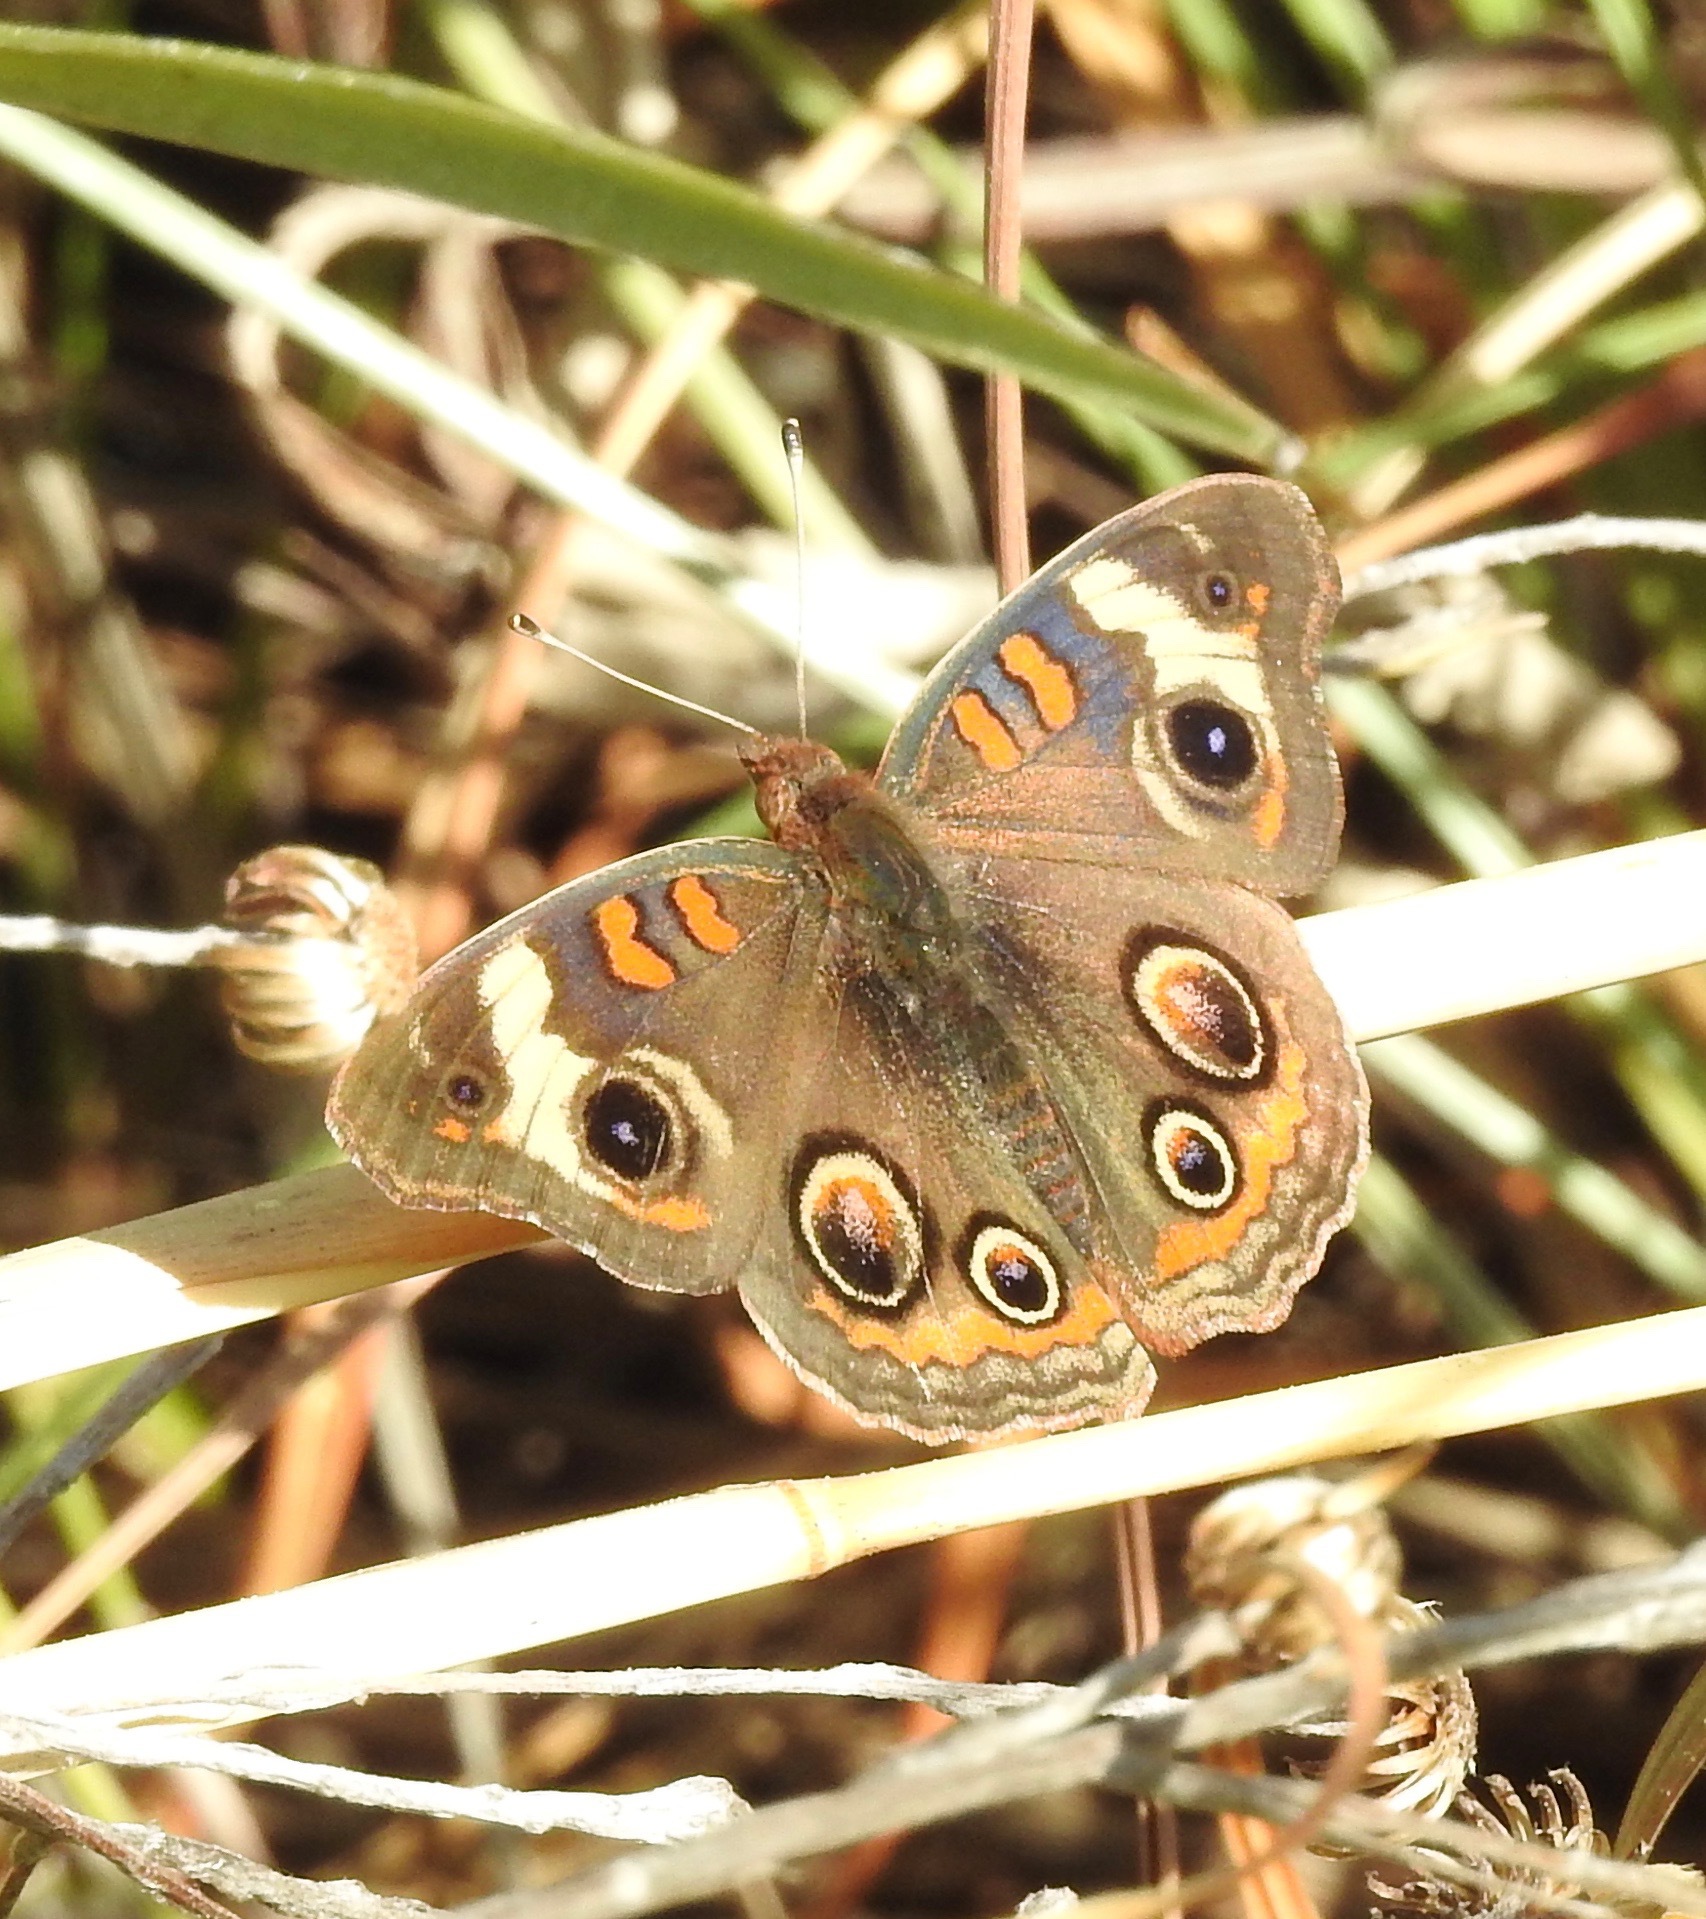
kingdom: Animalia
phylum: Arthropoda
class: Insecta
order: Lepidoptera
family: Nymphalidae
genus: Junonia
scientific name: Junonia coenia
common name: Common buckeye
